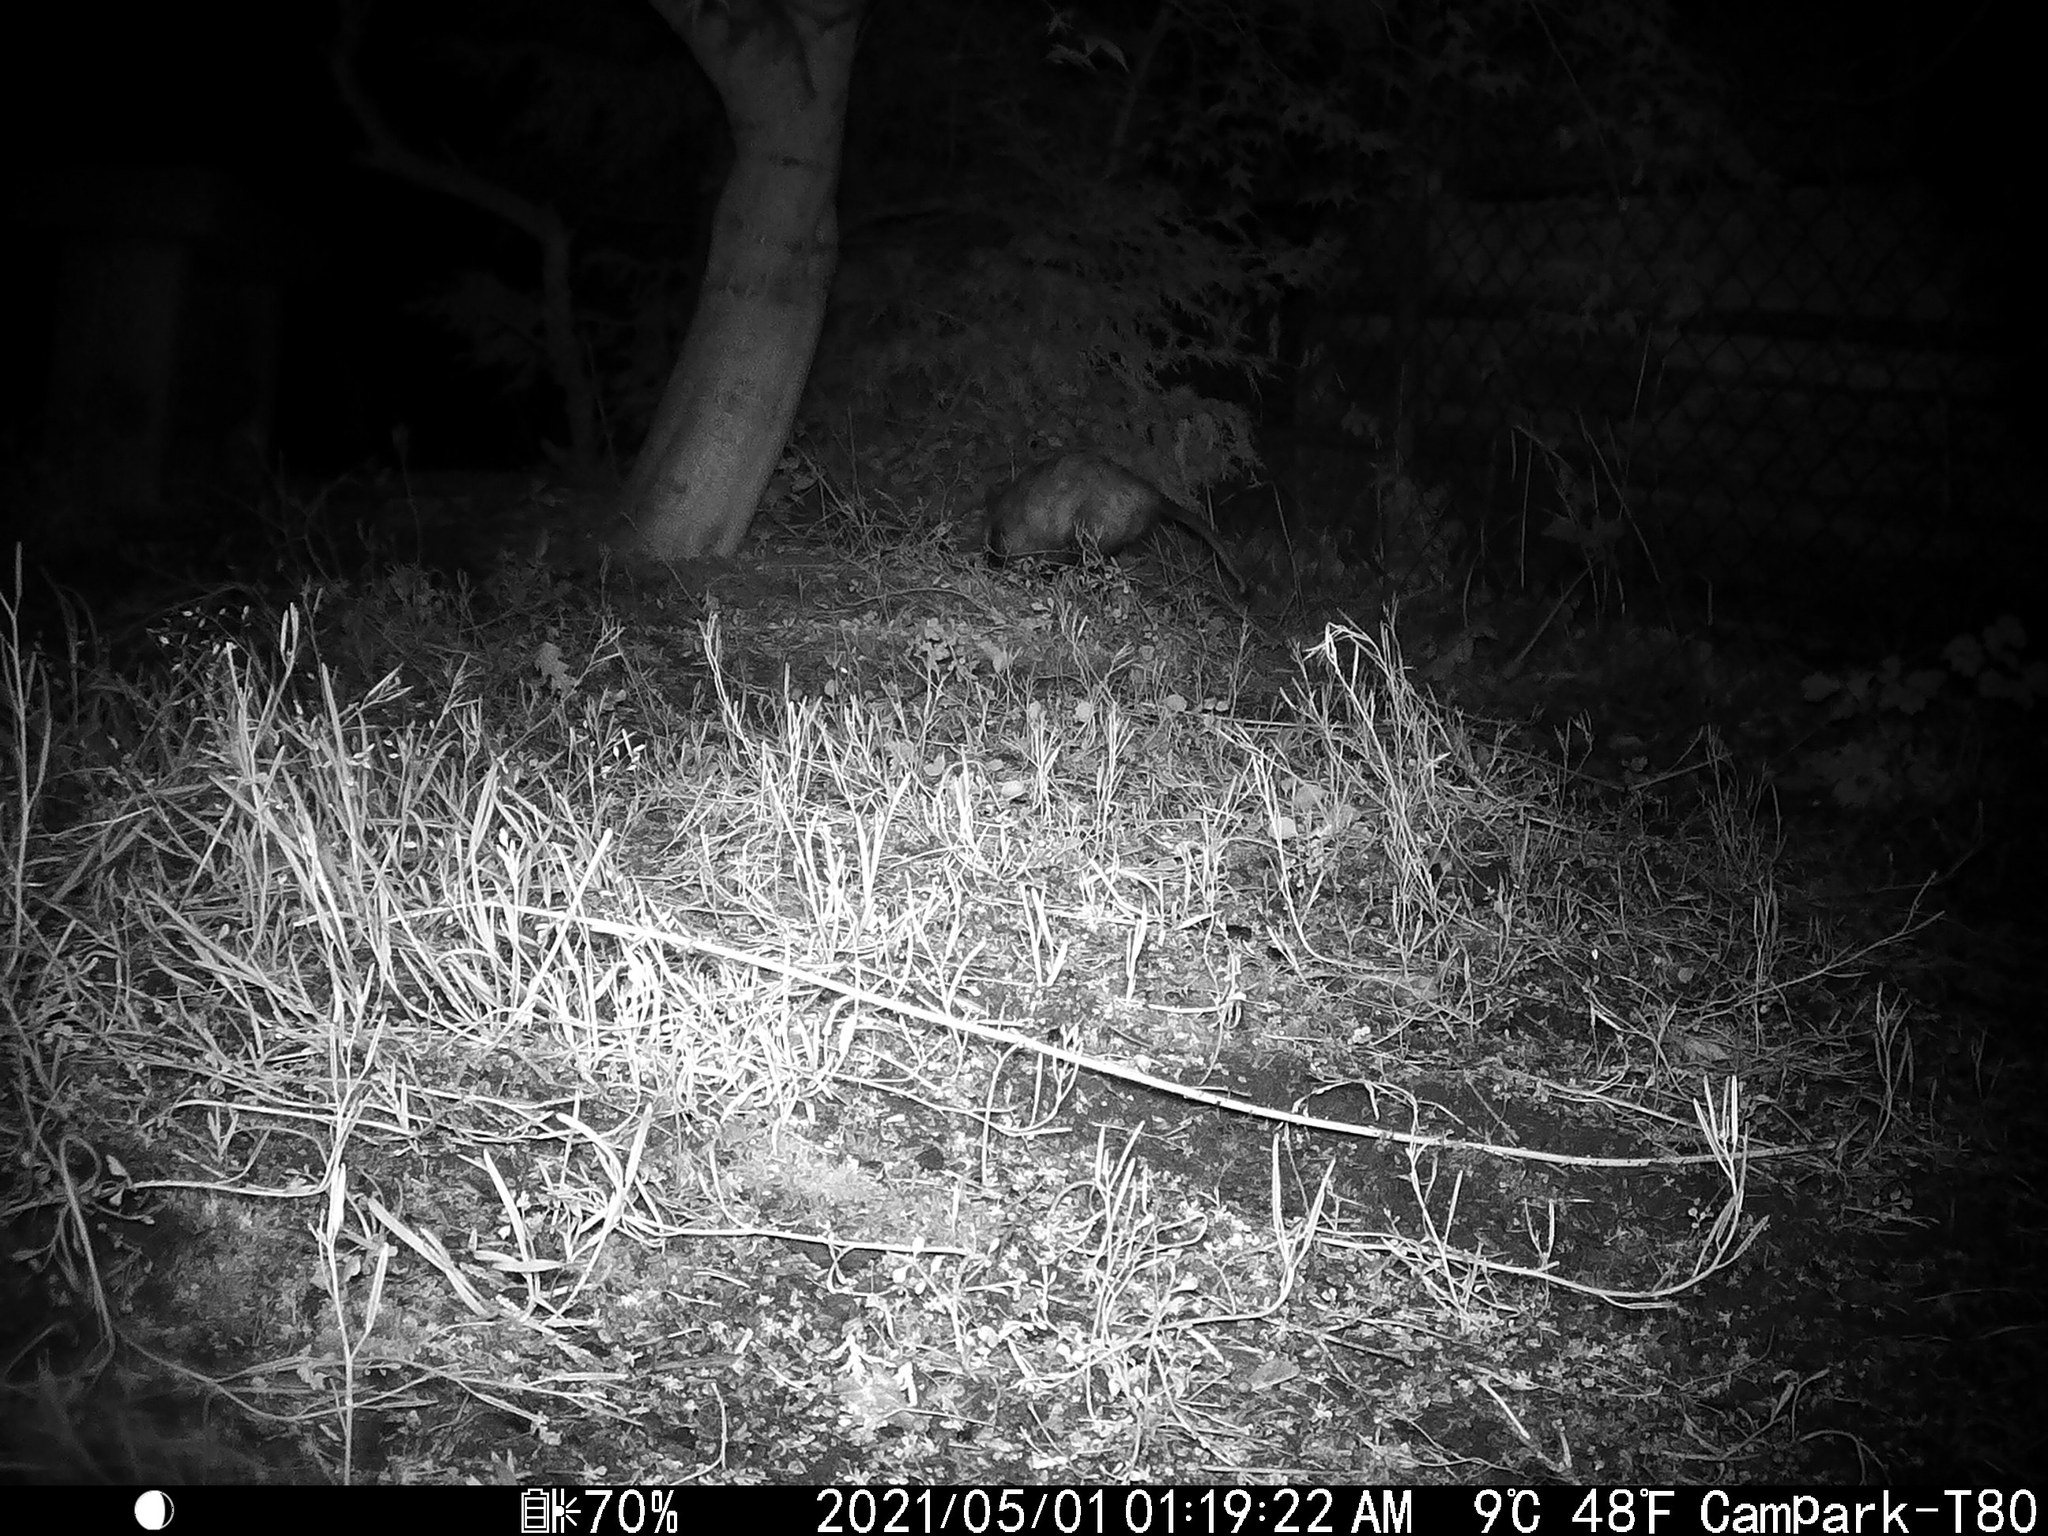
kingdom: Animalia
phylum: Chordata
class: Mammalia
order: Didelphimorphia
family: Didelphidae
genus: Didelphis
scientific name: Didelphis virginiana
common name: Virginia opossum
